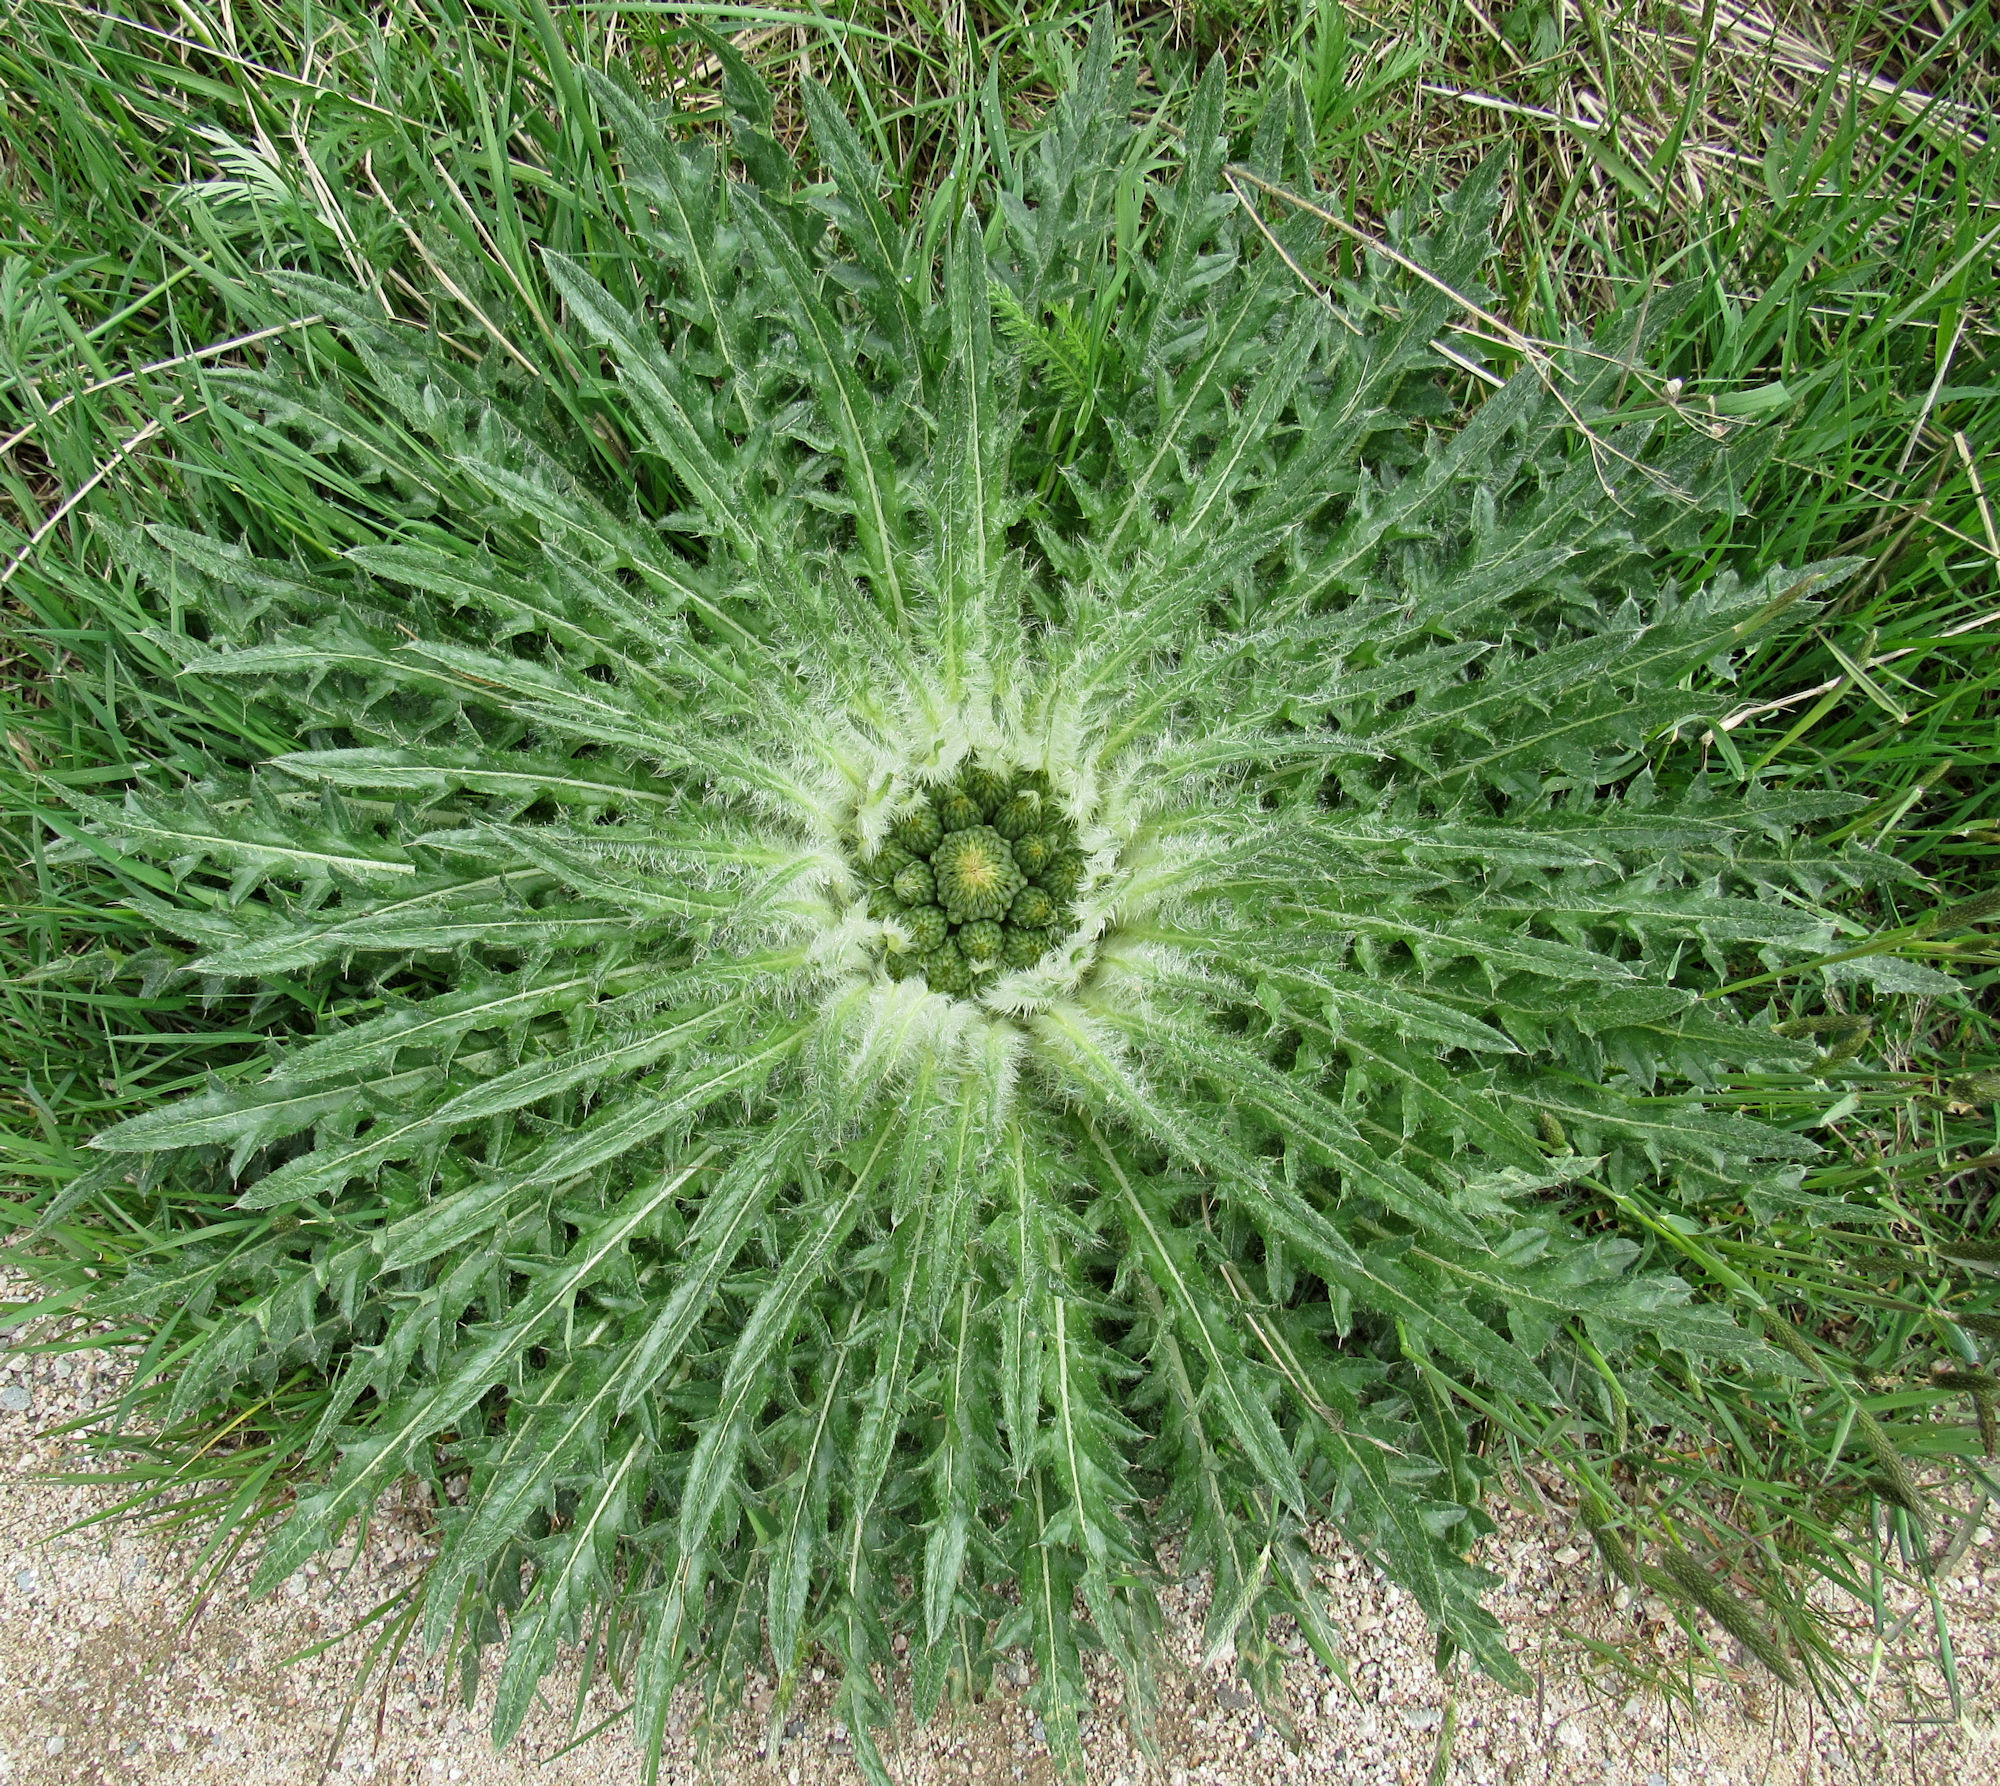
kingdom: Plantae
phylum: Tracheophyta
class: Magnoliopsida
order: Asterales
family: Asteraceae
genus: Cirsium
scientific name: Cirsium scariosum
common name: Meadow thistle
